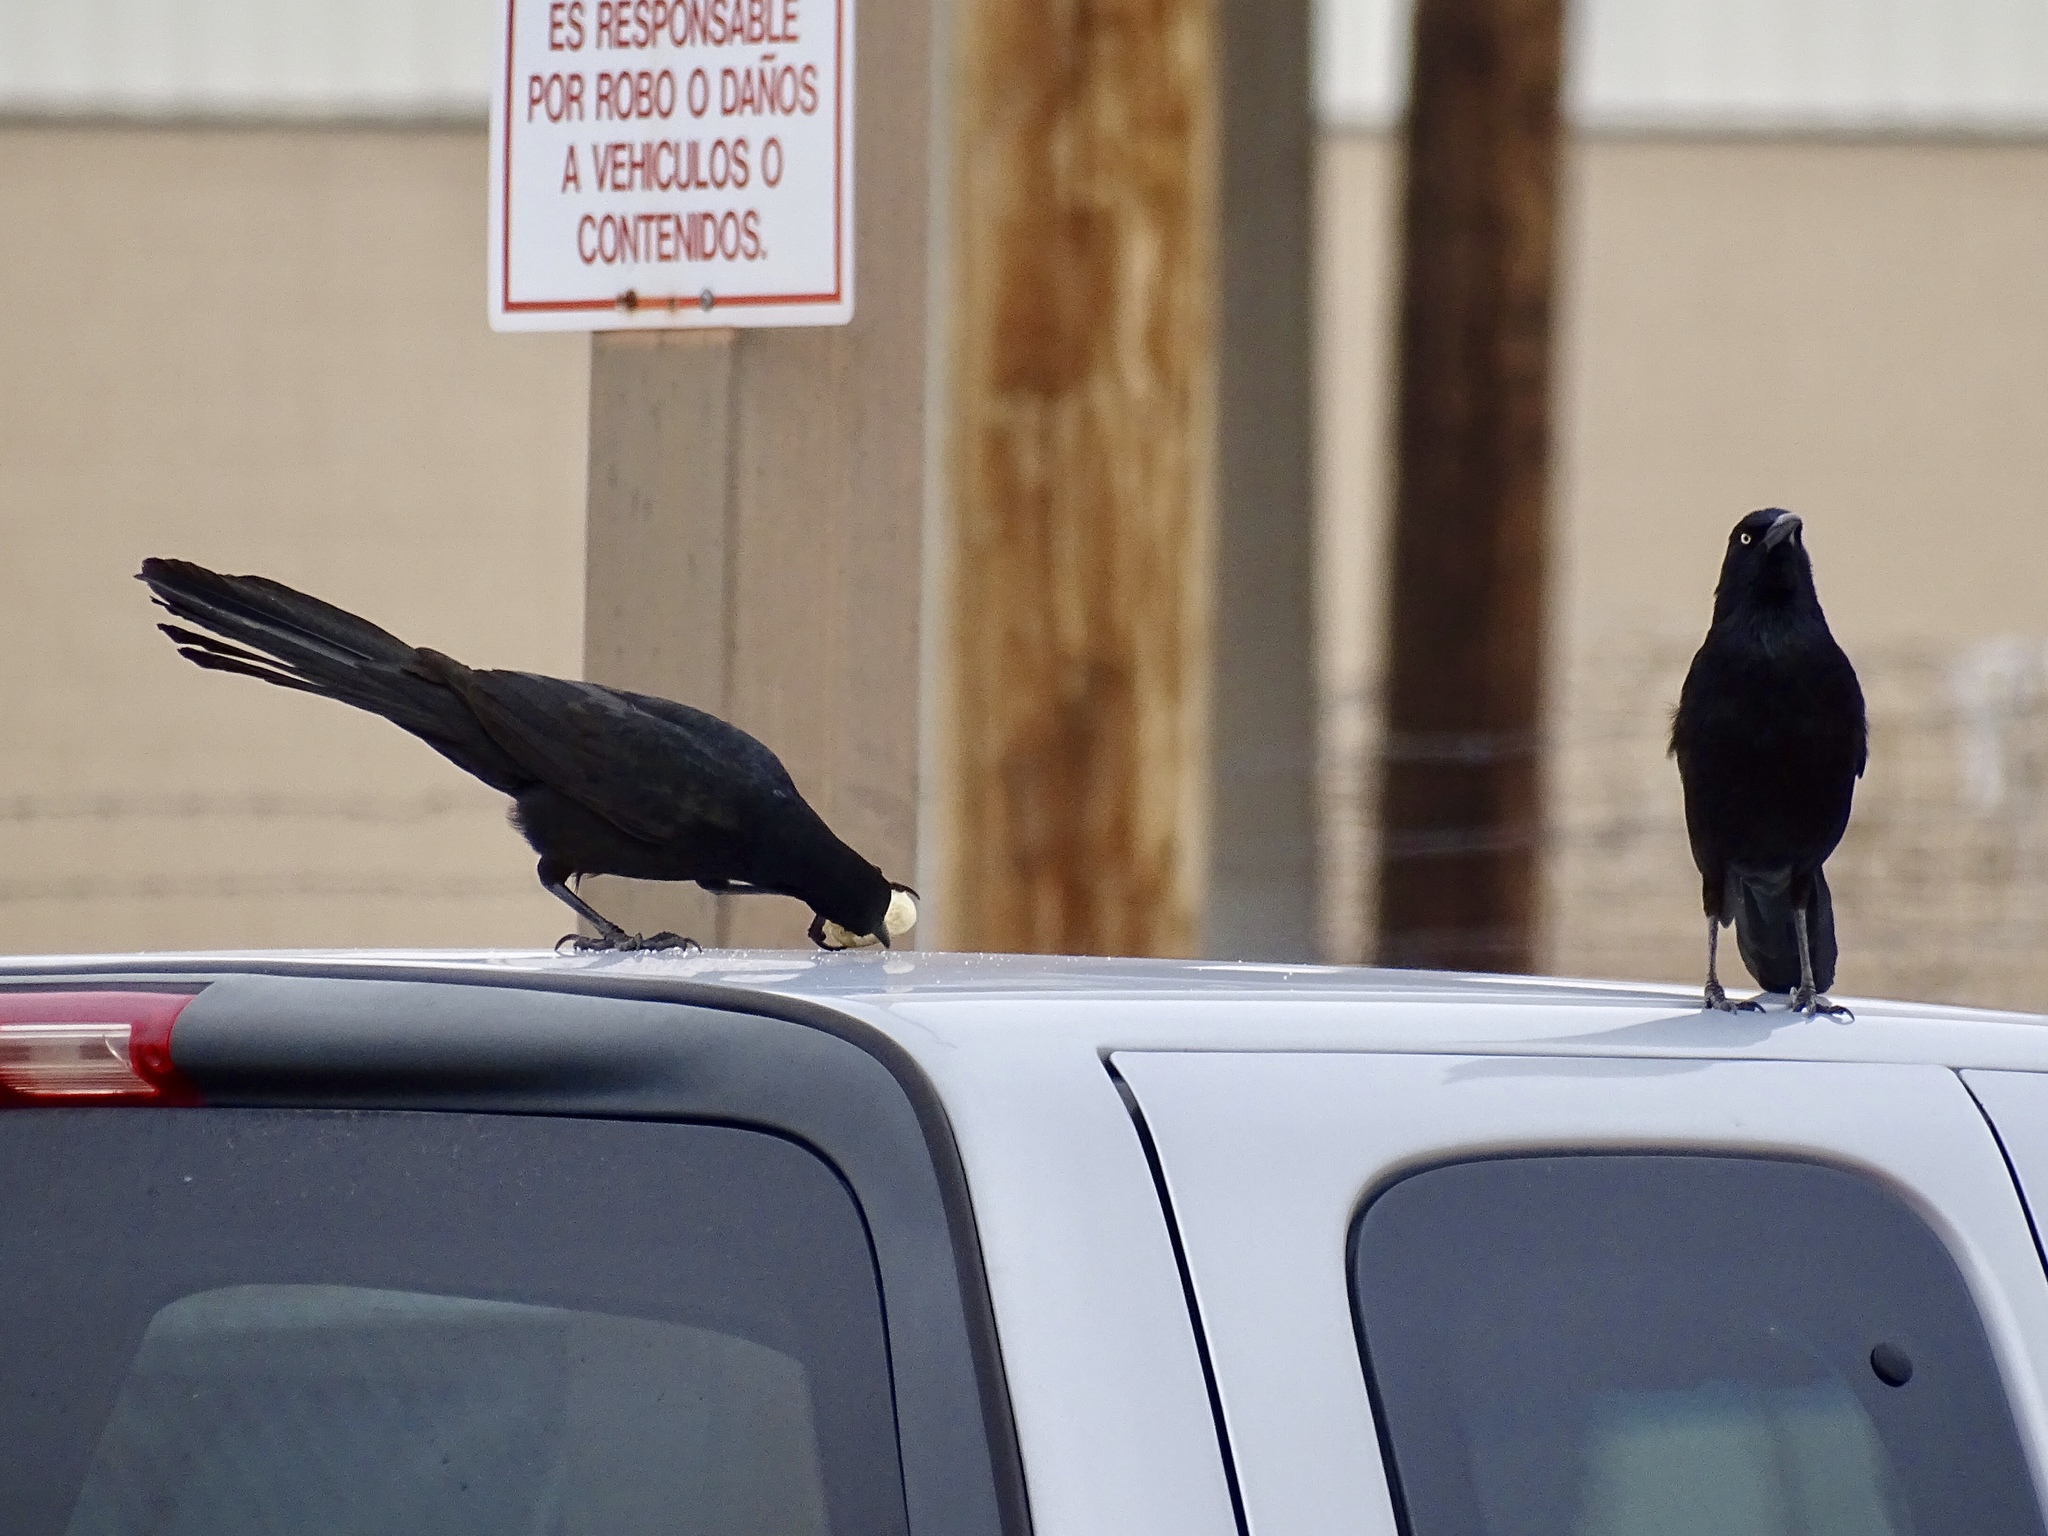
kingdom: Animalia
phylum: Chordata
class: Aves
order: Passeriformes
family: Icteridae
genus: Quiscalus
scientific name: Quiscalus mexicanus
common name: Great-tailed grackle
